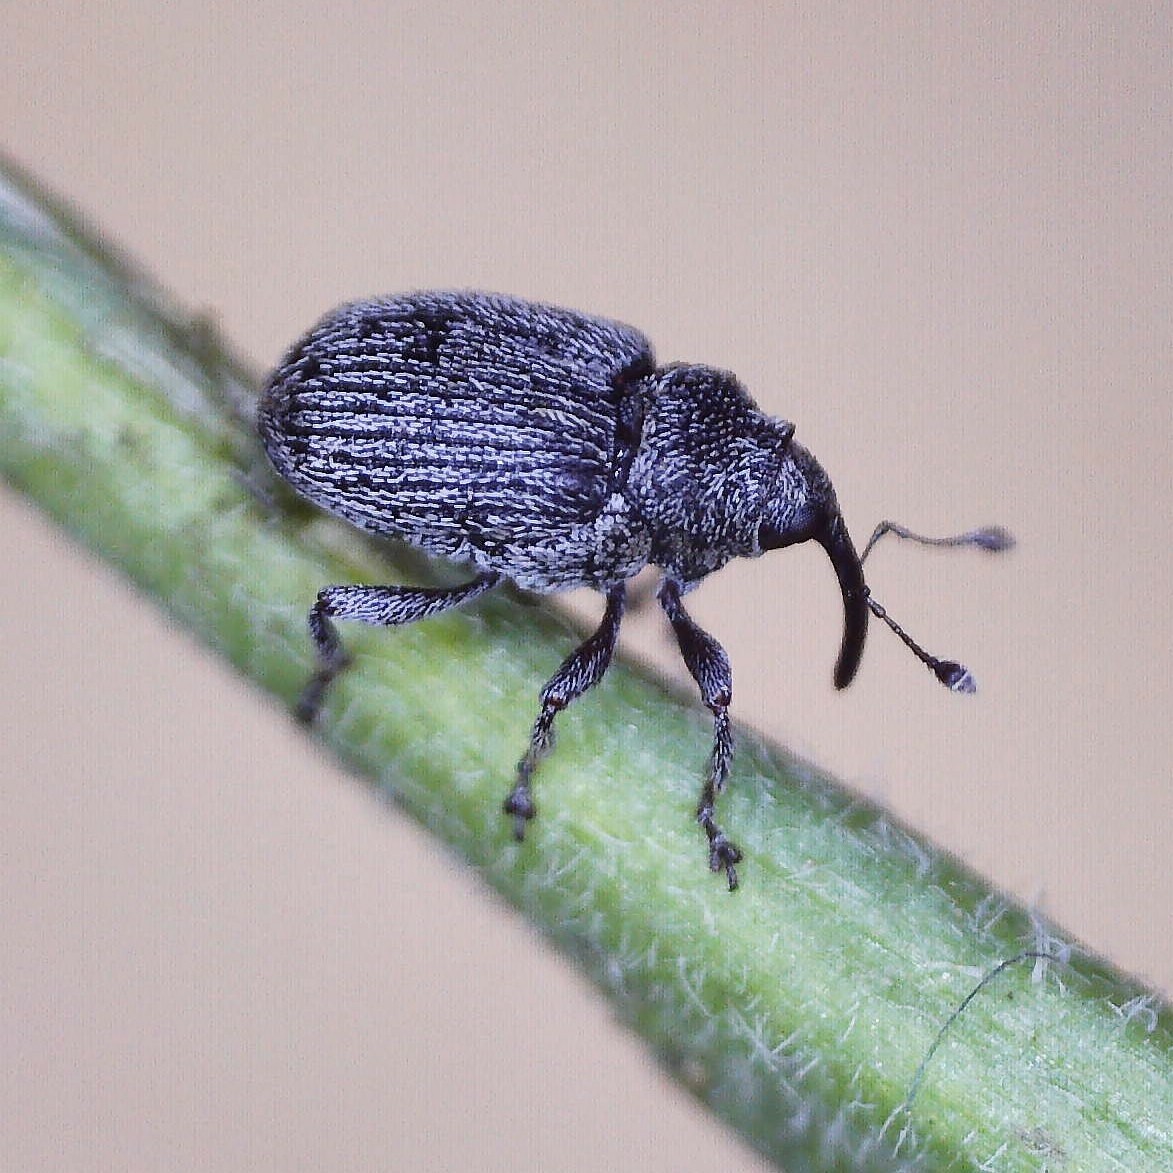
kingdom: Animalia
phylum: Arthropoda
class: Insecta
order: Coleoptera
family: Curculionidae
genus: Ceutorhynchus
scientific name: Ceutorhynchus typhae
